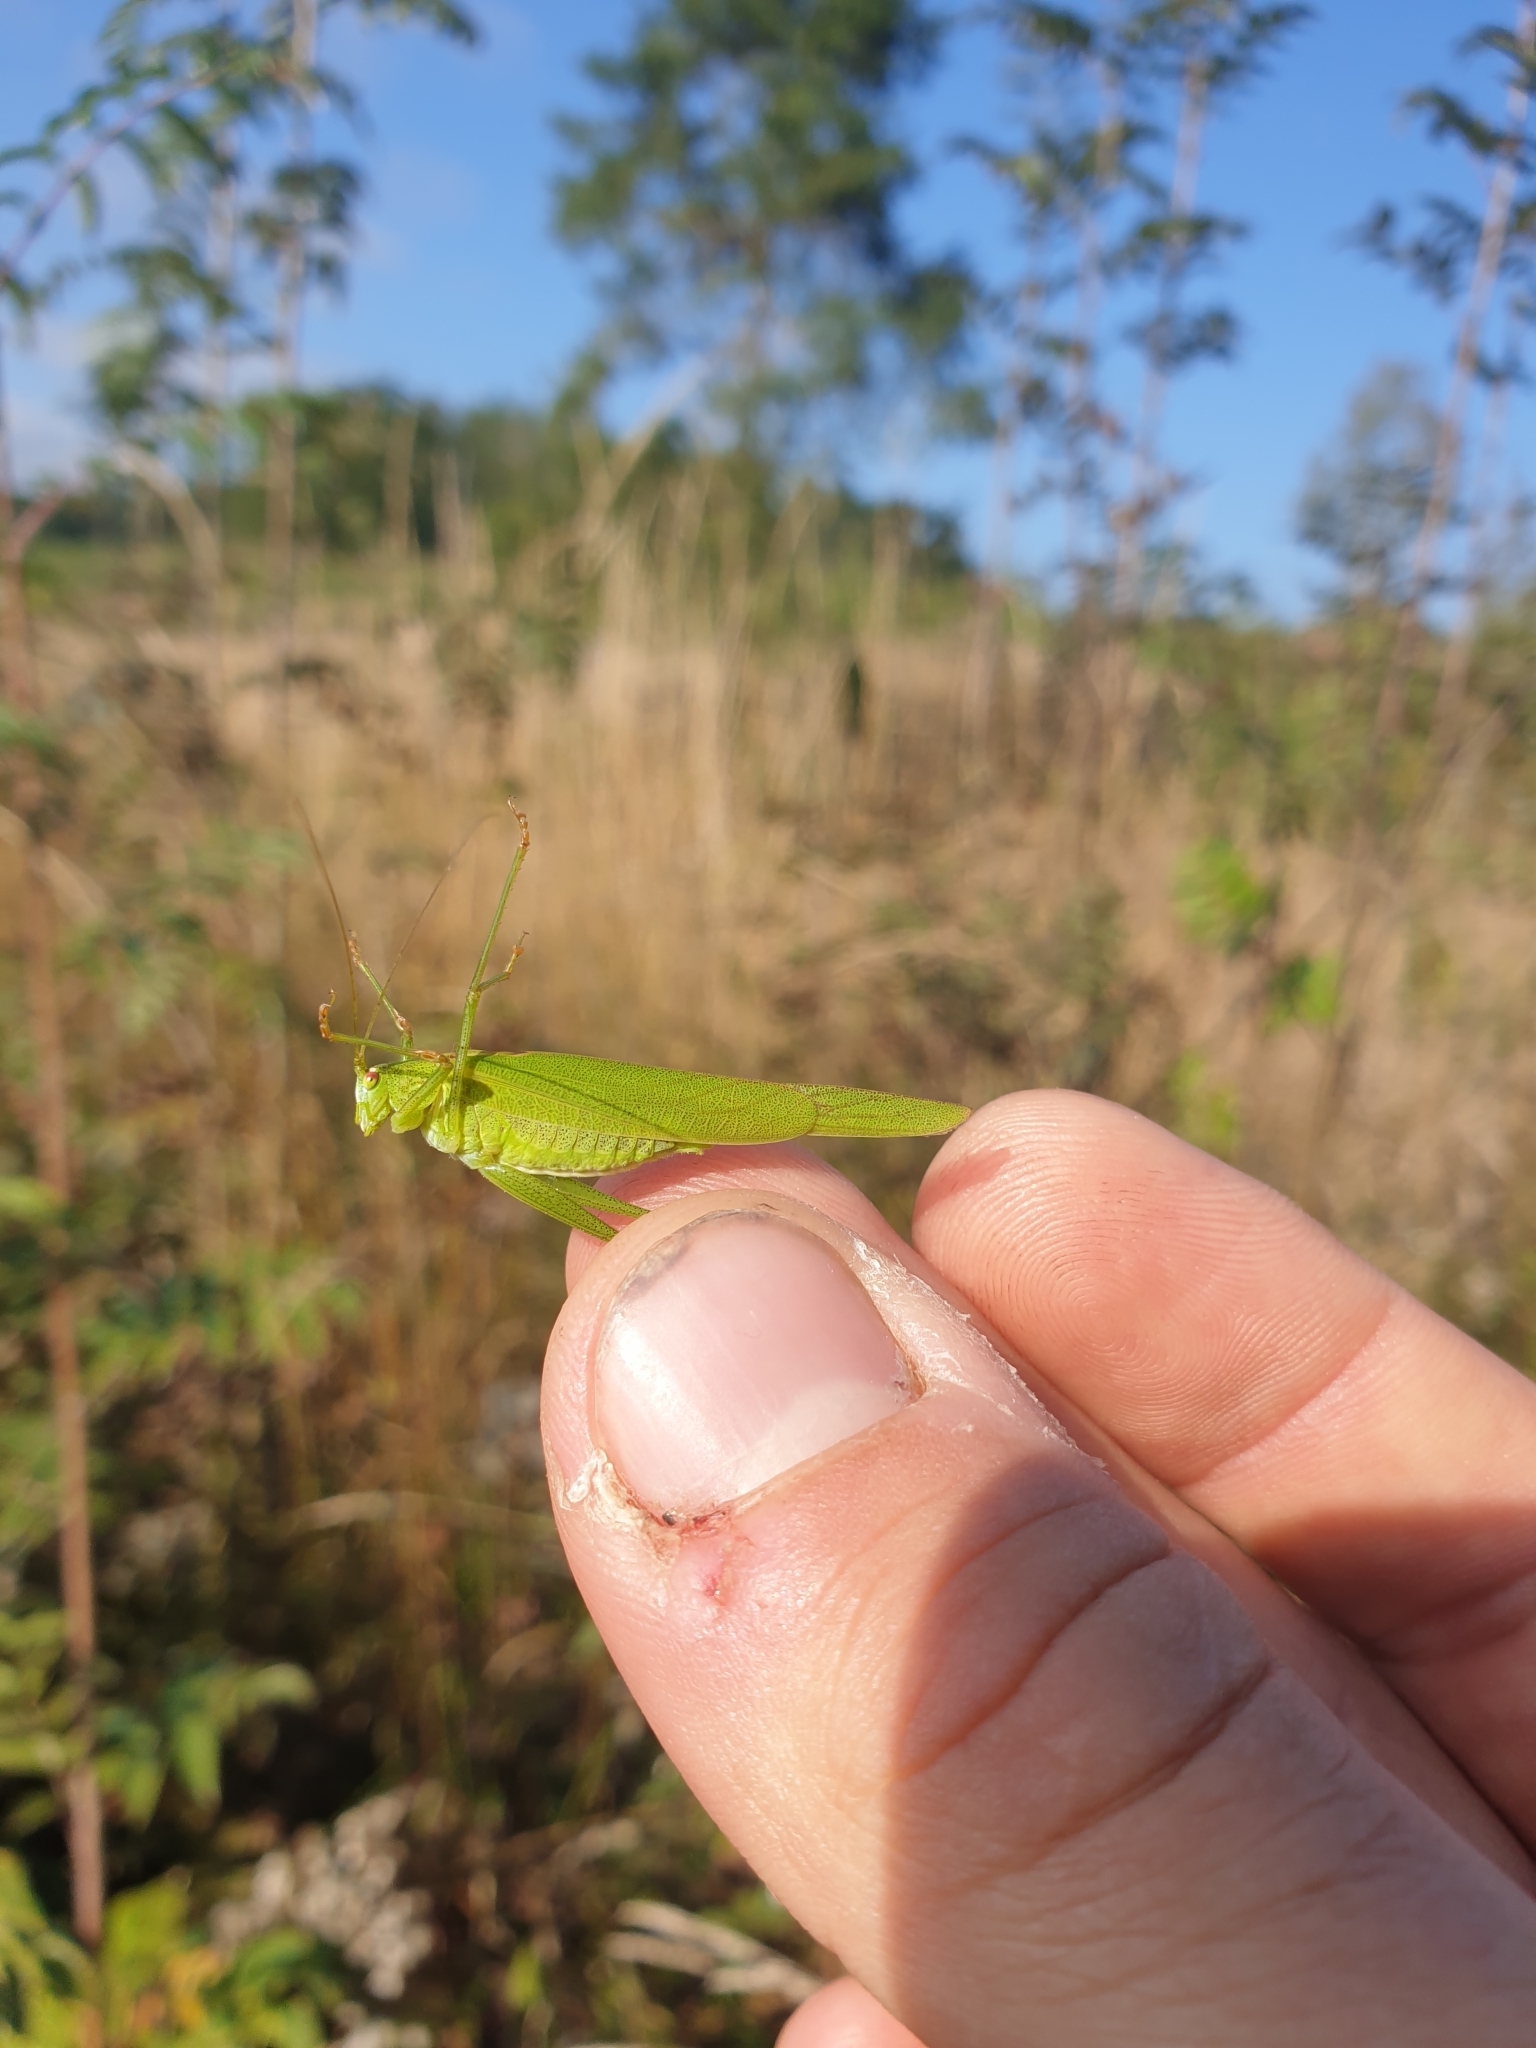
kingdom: Animalia
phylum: Arthropoda
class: Insecta
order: Orthoptera
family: Tettigoniidae
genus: Phaneroptera
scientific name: Phaneroptera falcata
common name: Sickle-bearing bush-cricket
